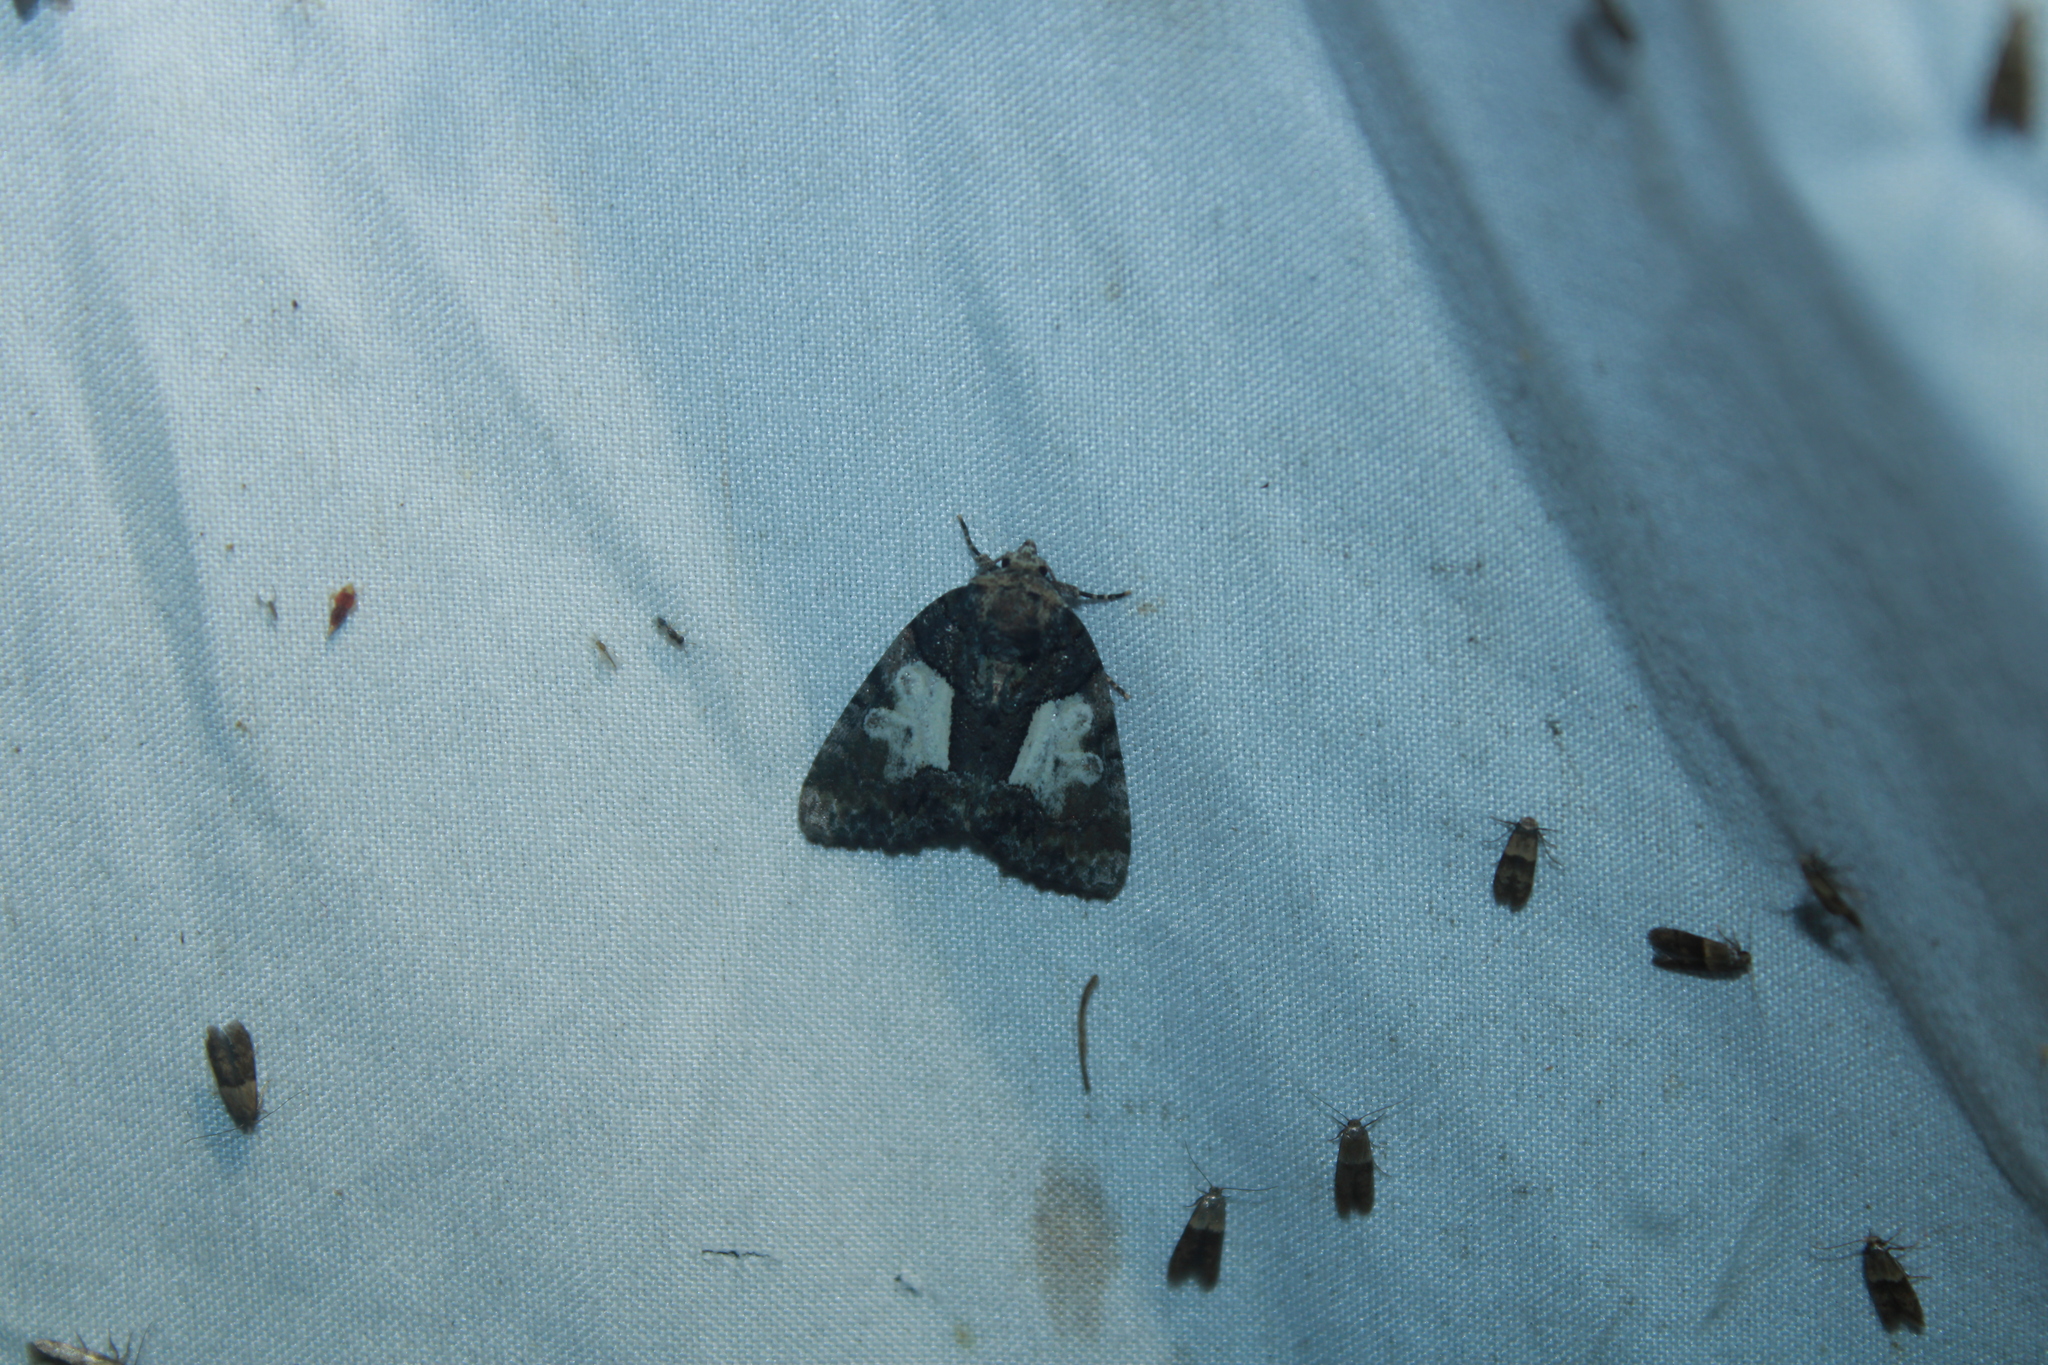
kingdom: Animalia
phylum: Arthropoda
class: Insecta
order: Lepidoptera
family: Noctuidae
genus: Chytonix
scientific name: Chytonix palliatricula
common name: Cloaked marvel
